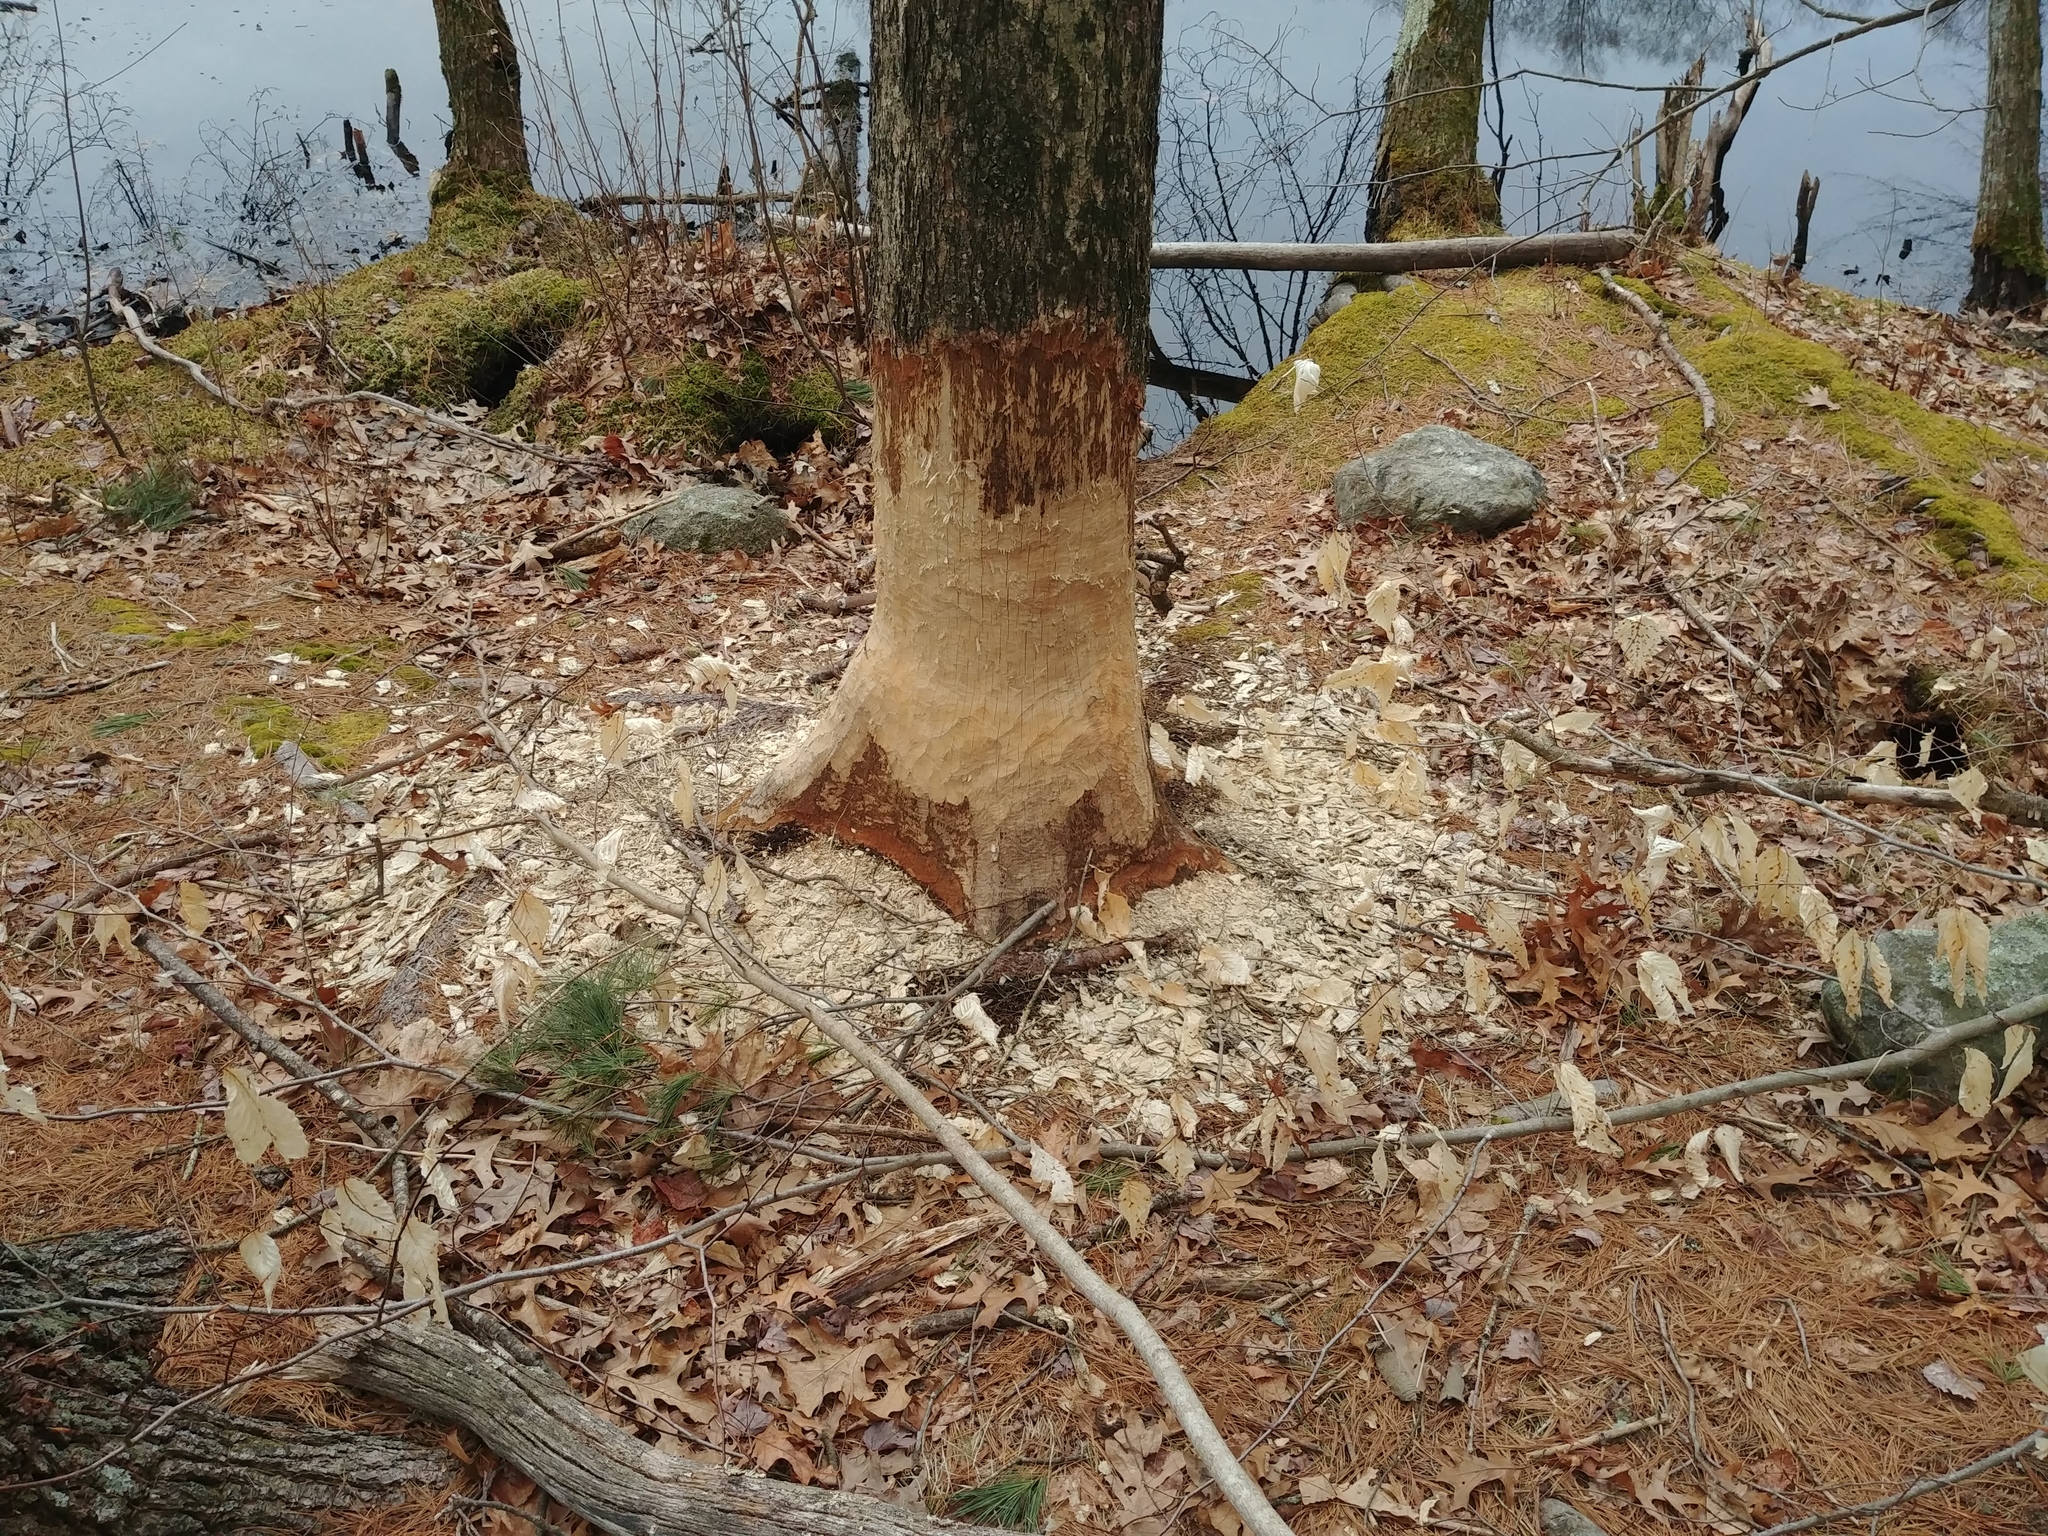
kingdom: Animalia
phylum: Chordata
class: Mammalia
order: Rodentia
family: Castoridae
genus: Castor
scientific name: Castor canadensis
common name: American beaver
